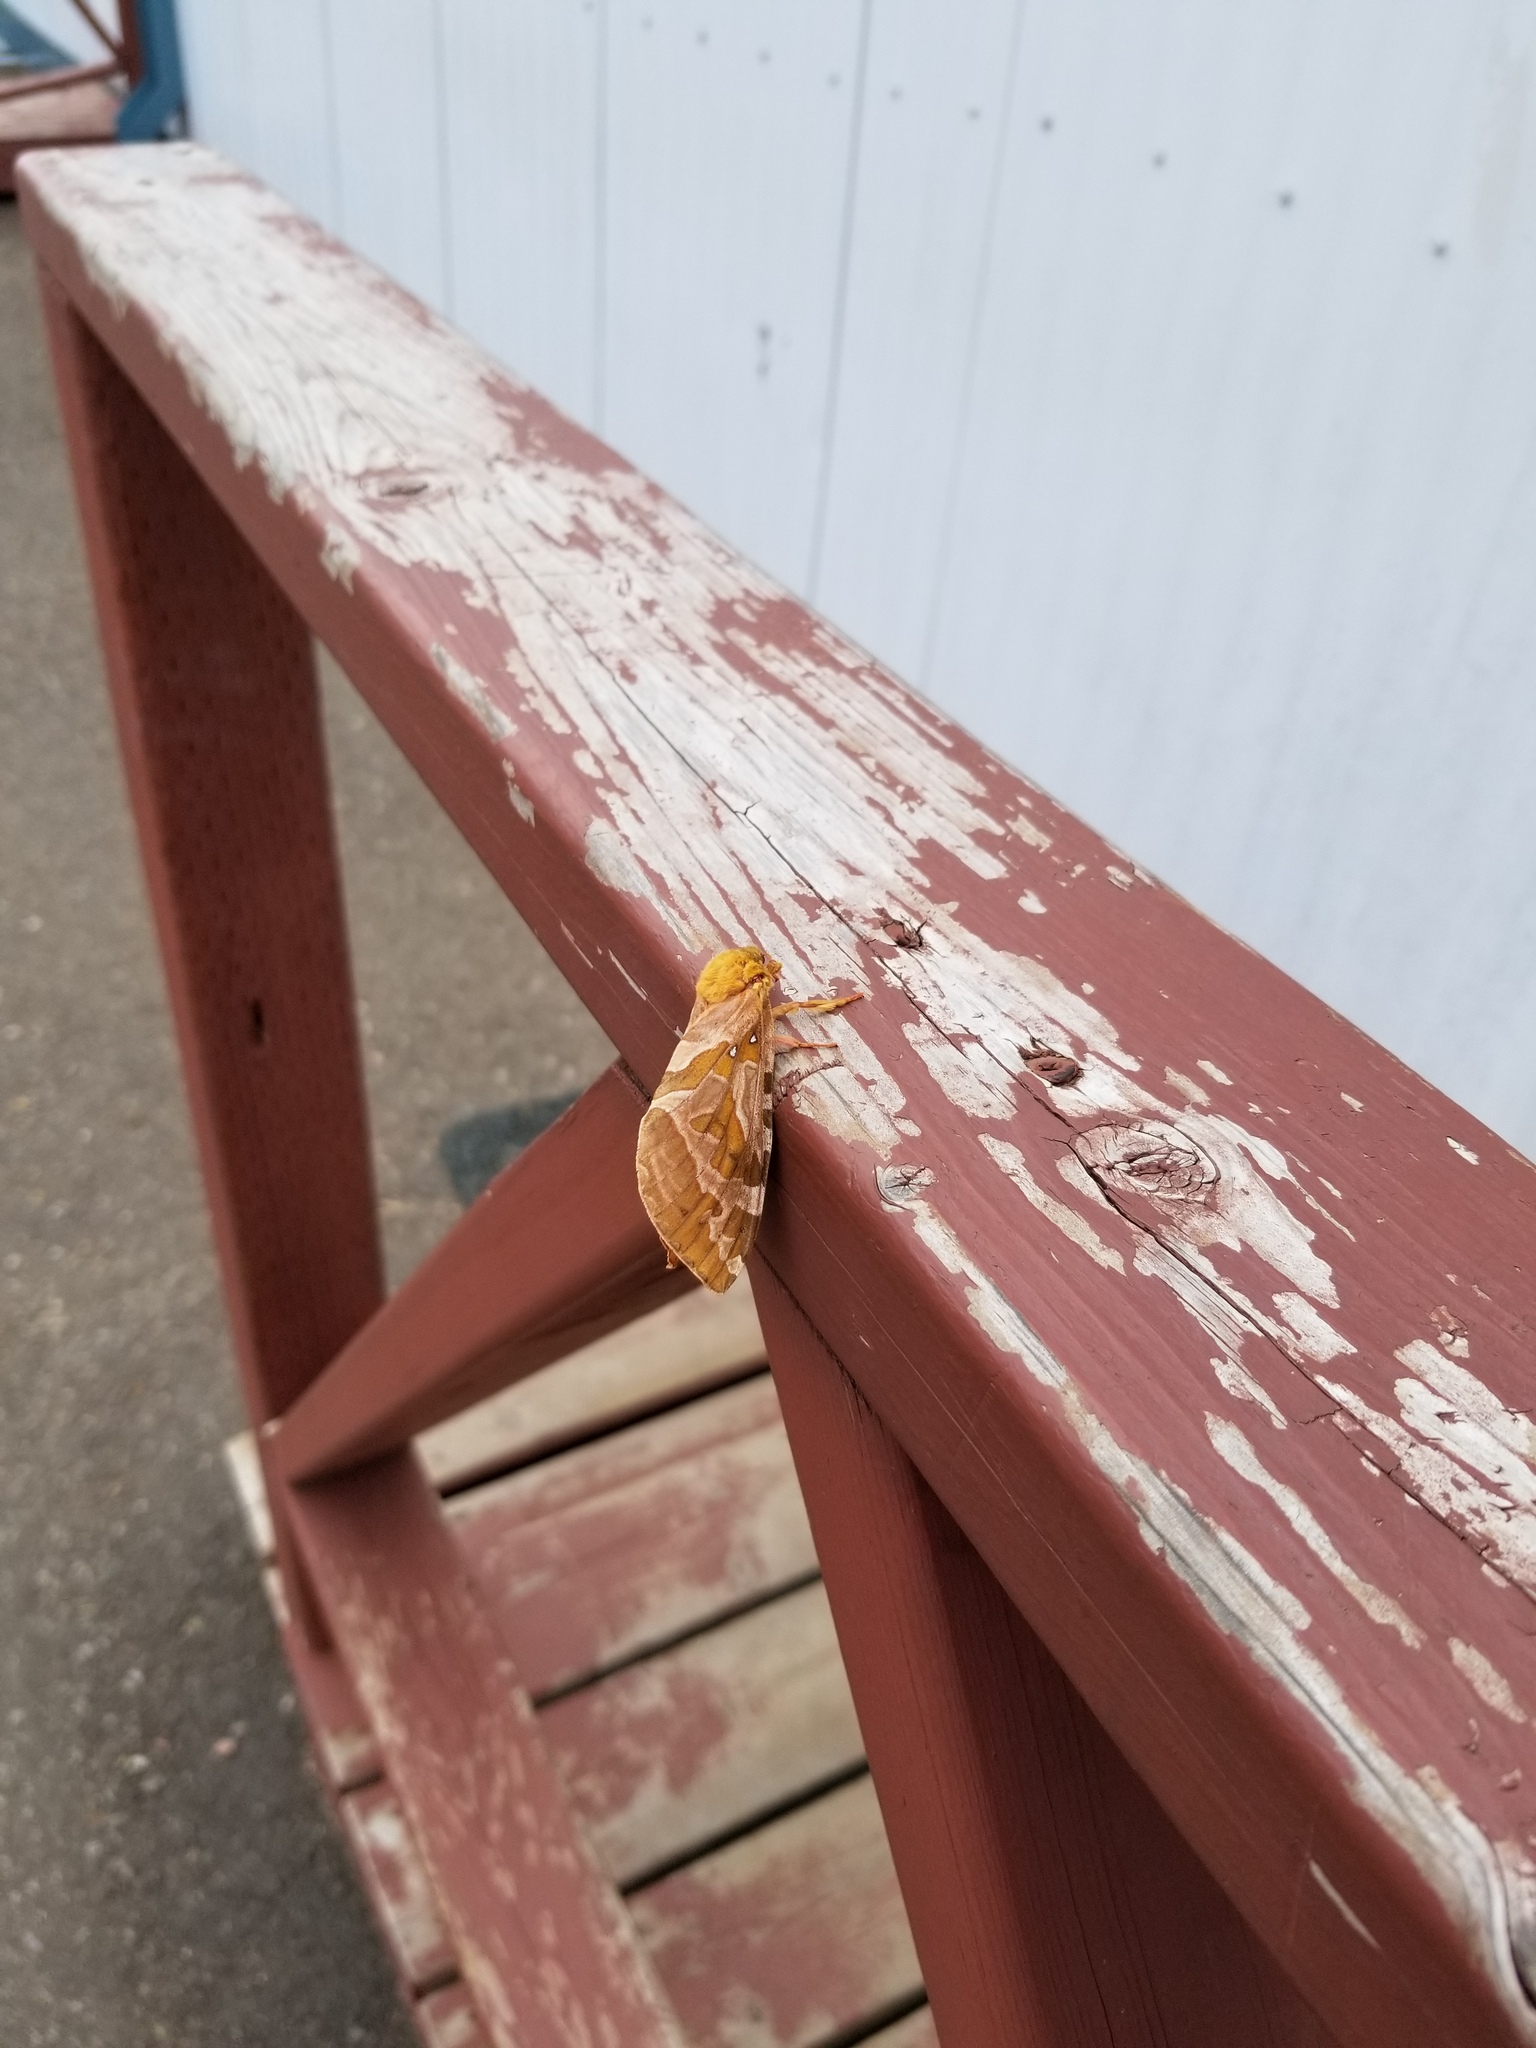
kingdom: Animalia
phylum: Arthropoda
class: Insecta
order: Lepidoptera
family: Hepialidae
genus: Sthenopis
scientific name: Sthenopis purpurascens
